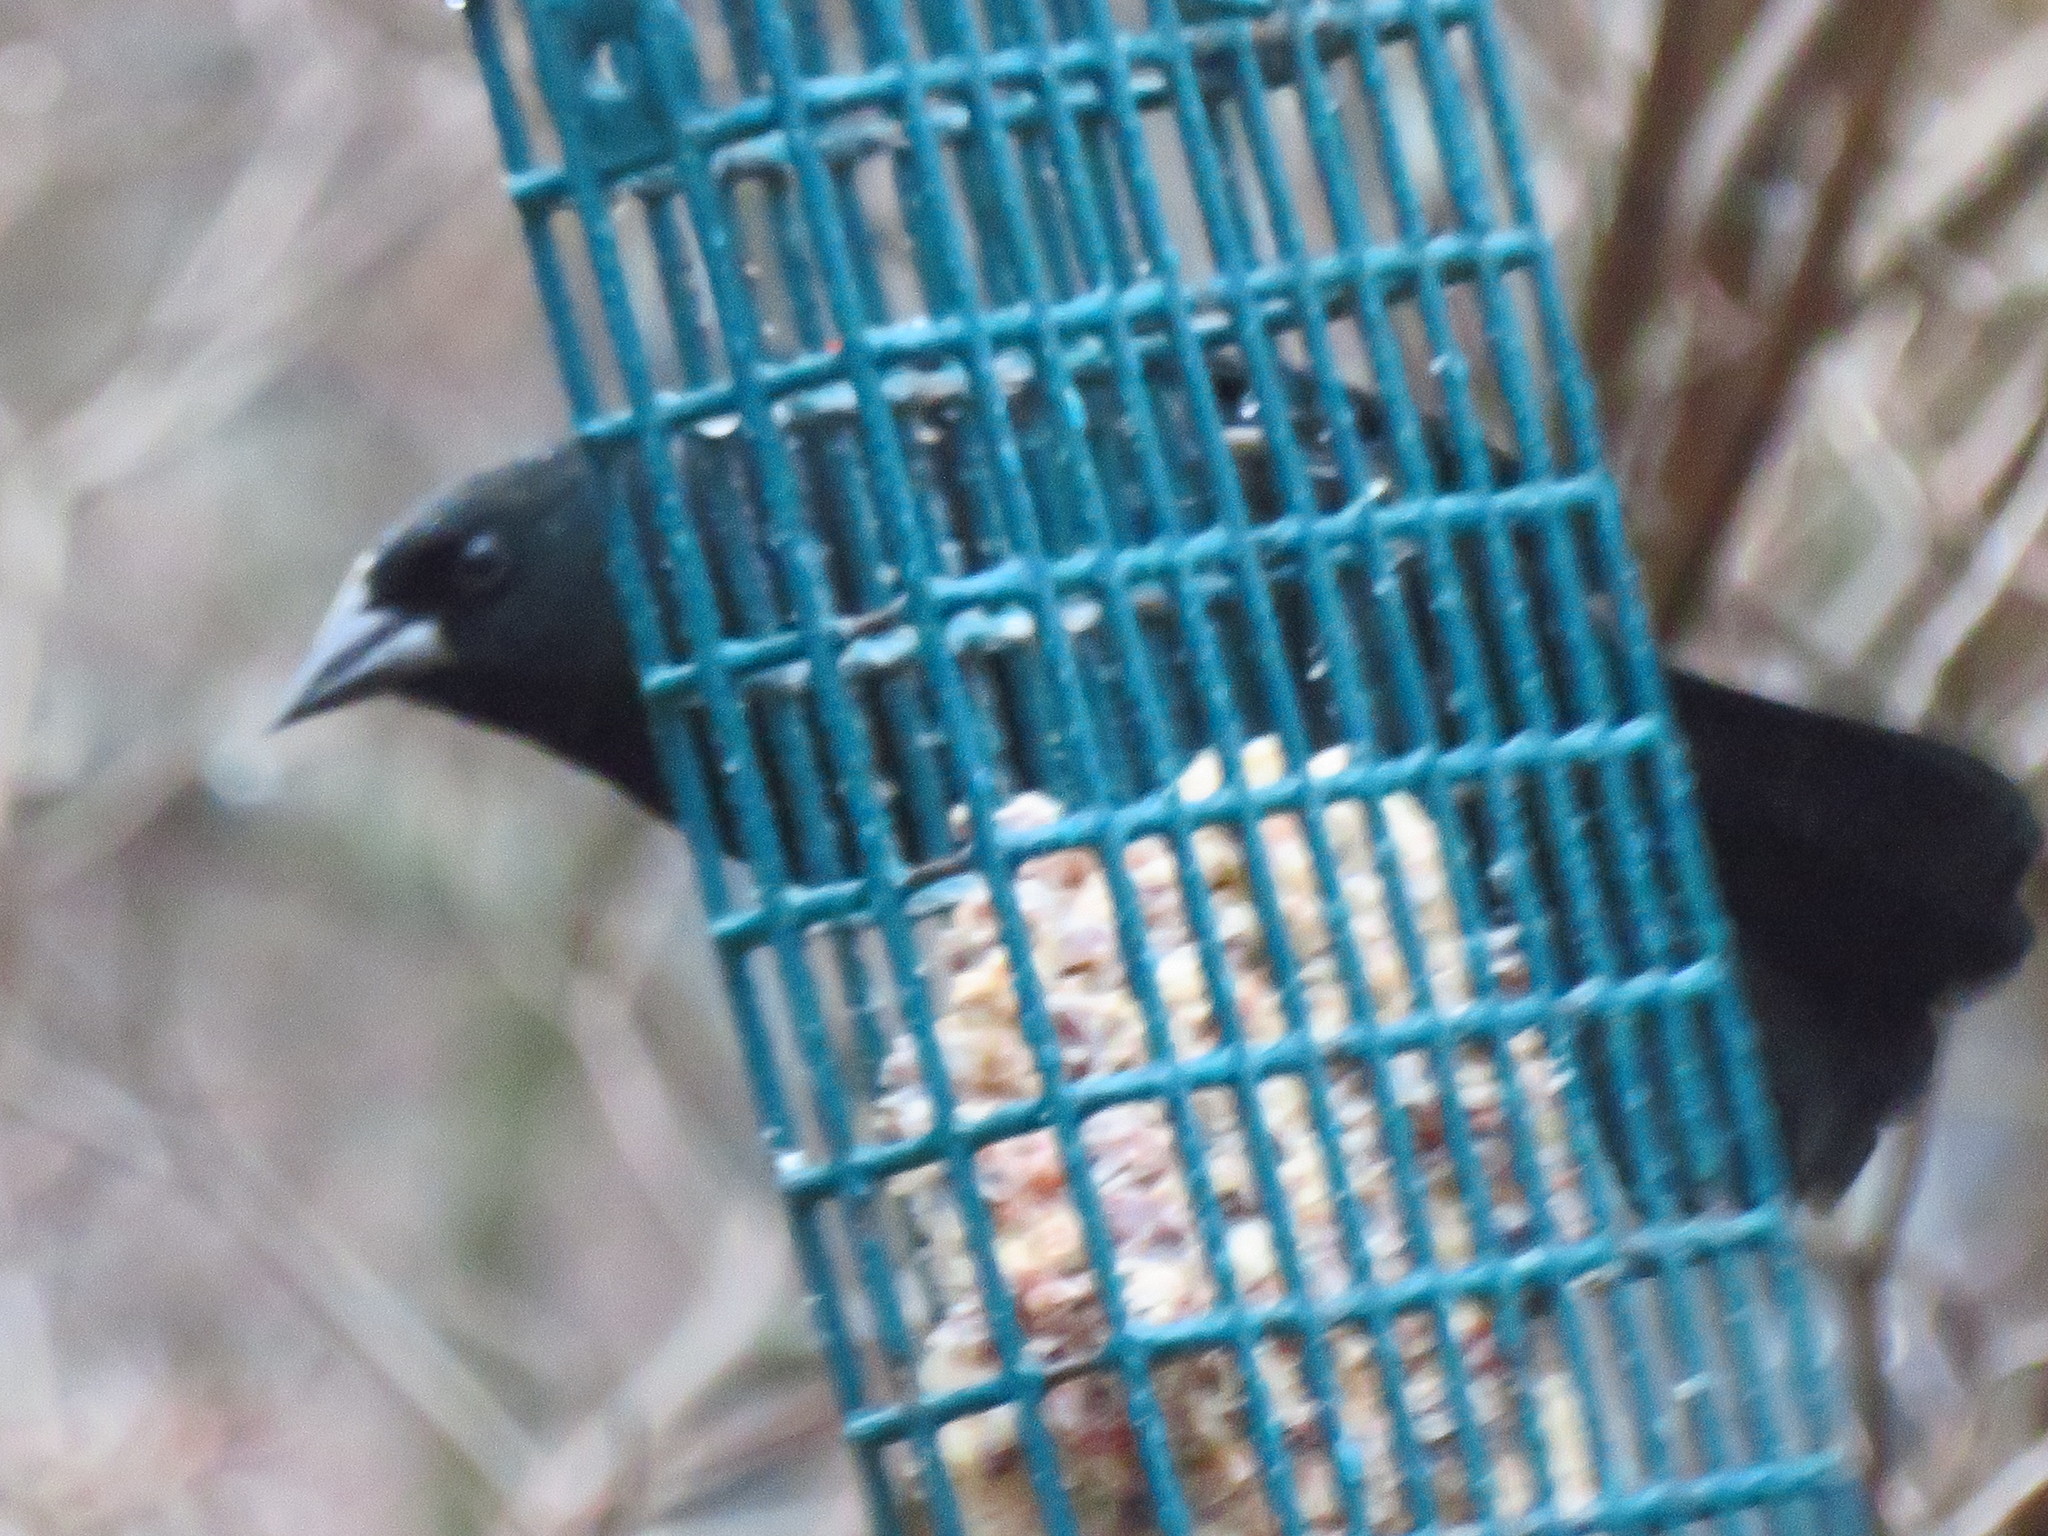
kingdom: Animalia
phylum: Chordata
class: Aves
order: Passeriformes
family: Icteridae
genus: Agelaius
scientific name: Agelaius phoeniceus
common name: Red-winged blackbird
